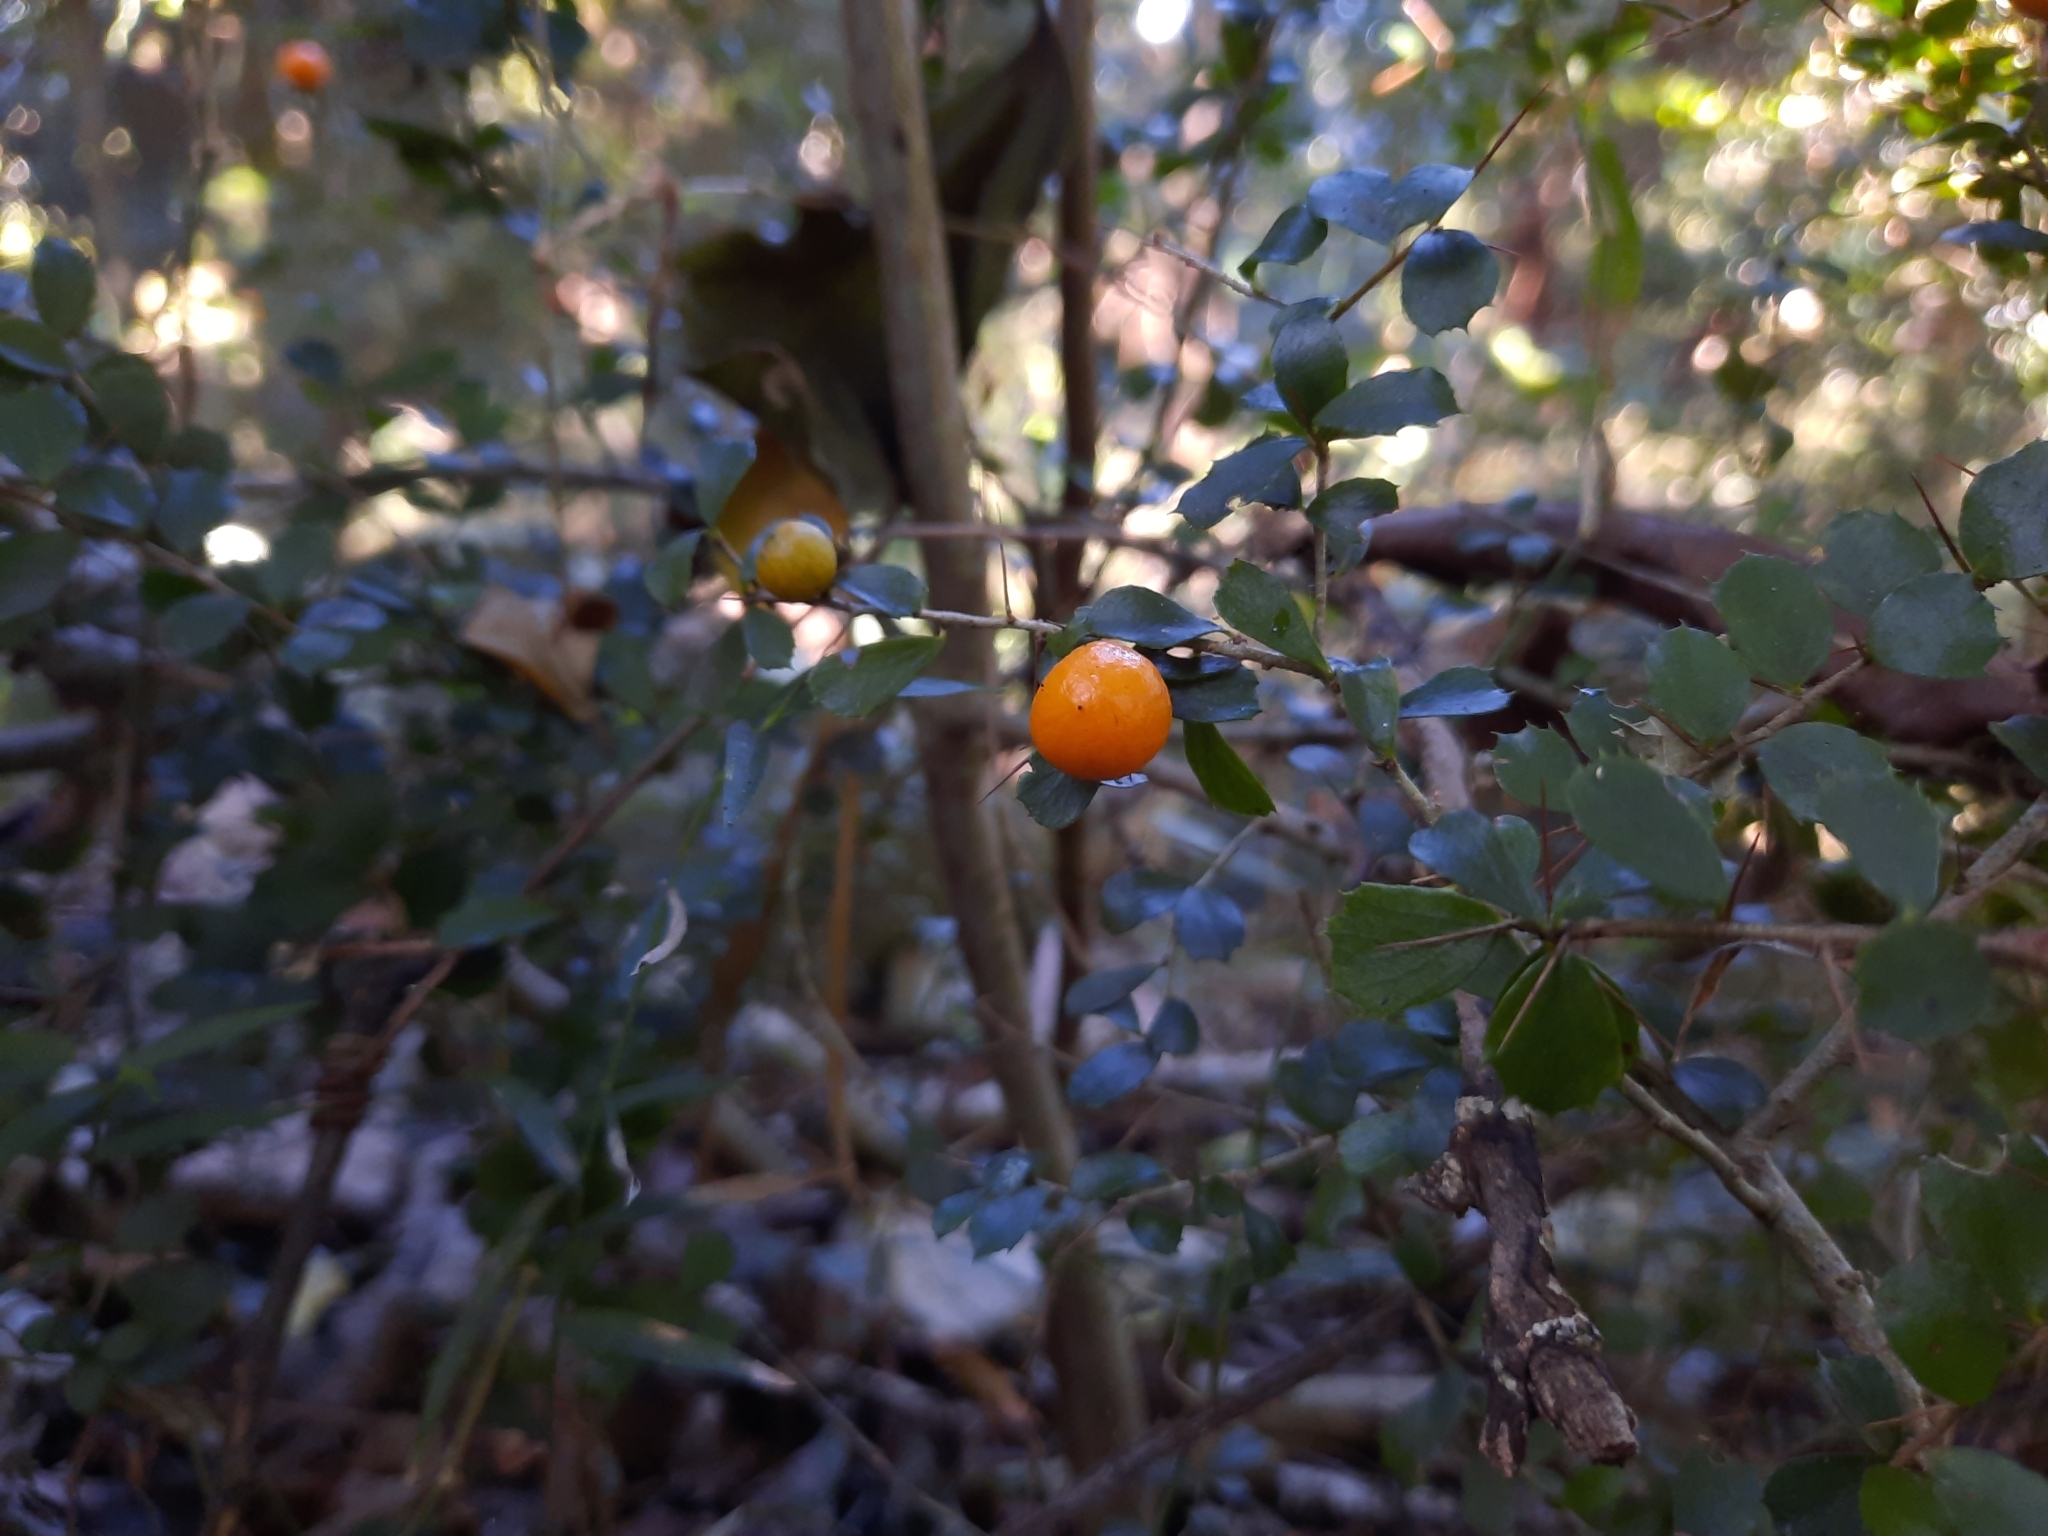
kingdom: Plantae
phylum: Tracheophyta
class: Magnoliopsida
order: Apiales
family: Pittosporaceae
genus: Pittosporum
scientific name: Pittosporum multiflorum
